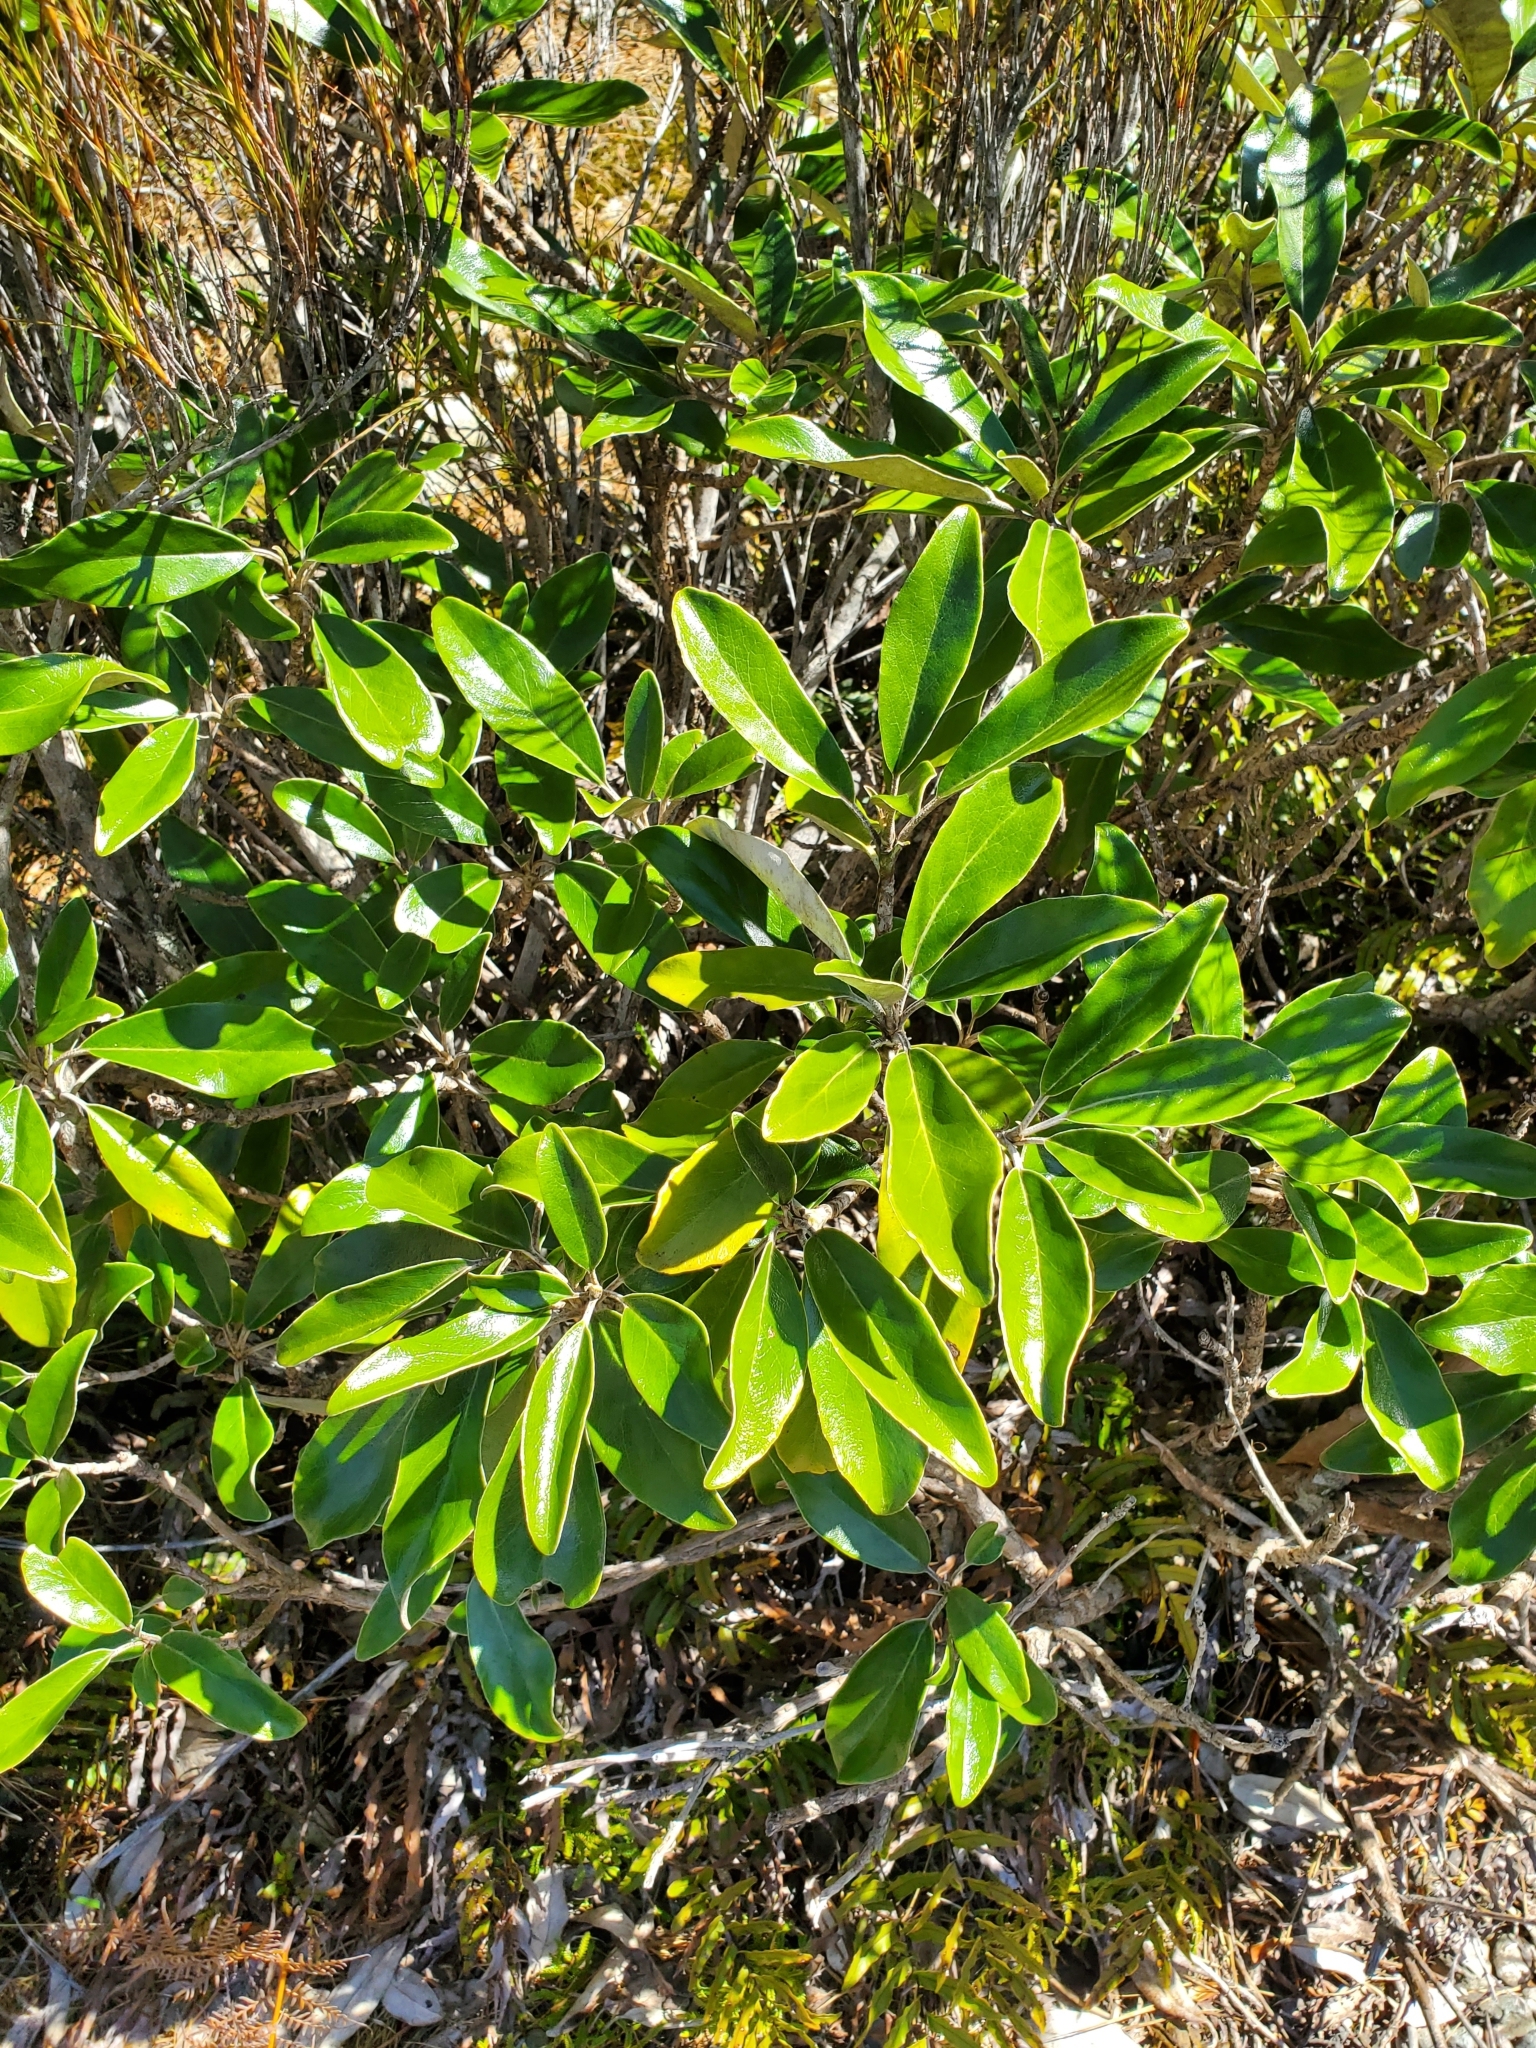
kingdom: Plantae
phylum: Tracheophyta
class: Magnoliopsida
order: Asterales
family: Asteraceae
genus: Brachyglottis
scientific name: Brachyglottis buchananii
